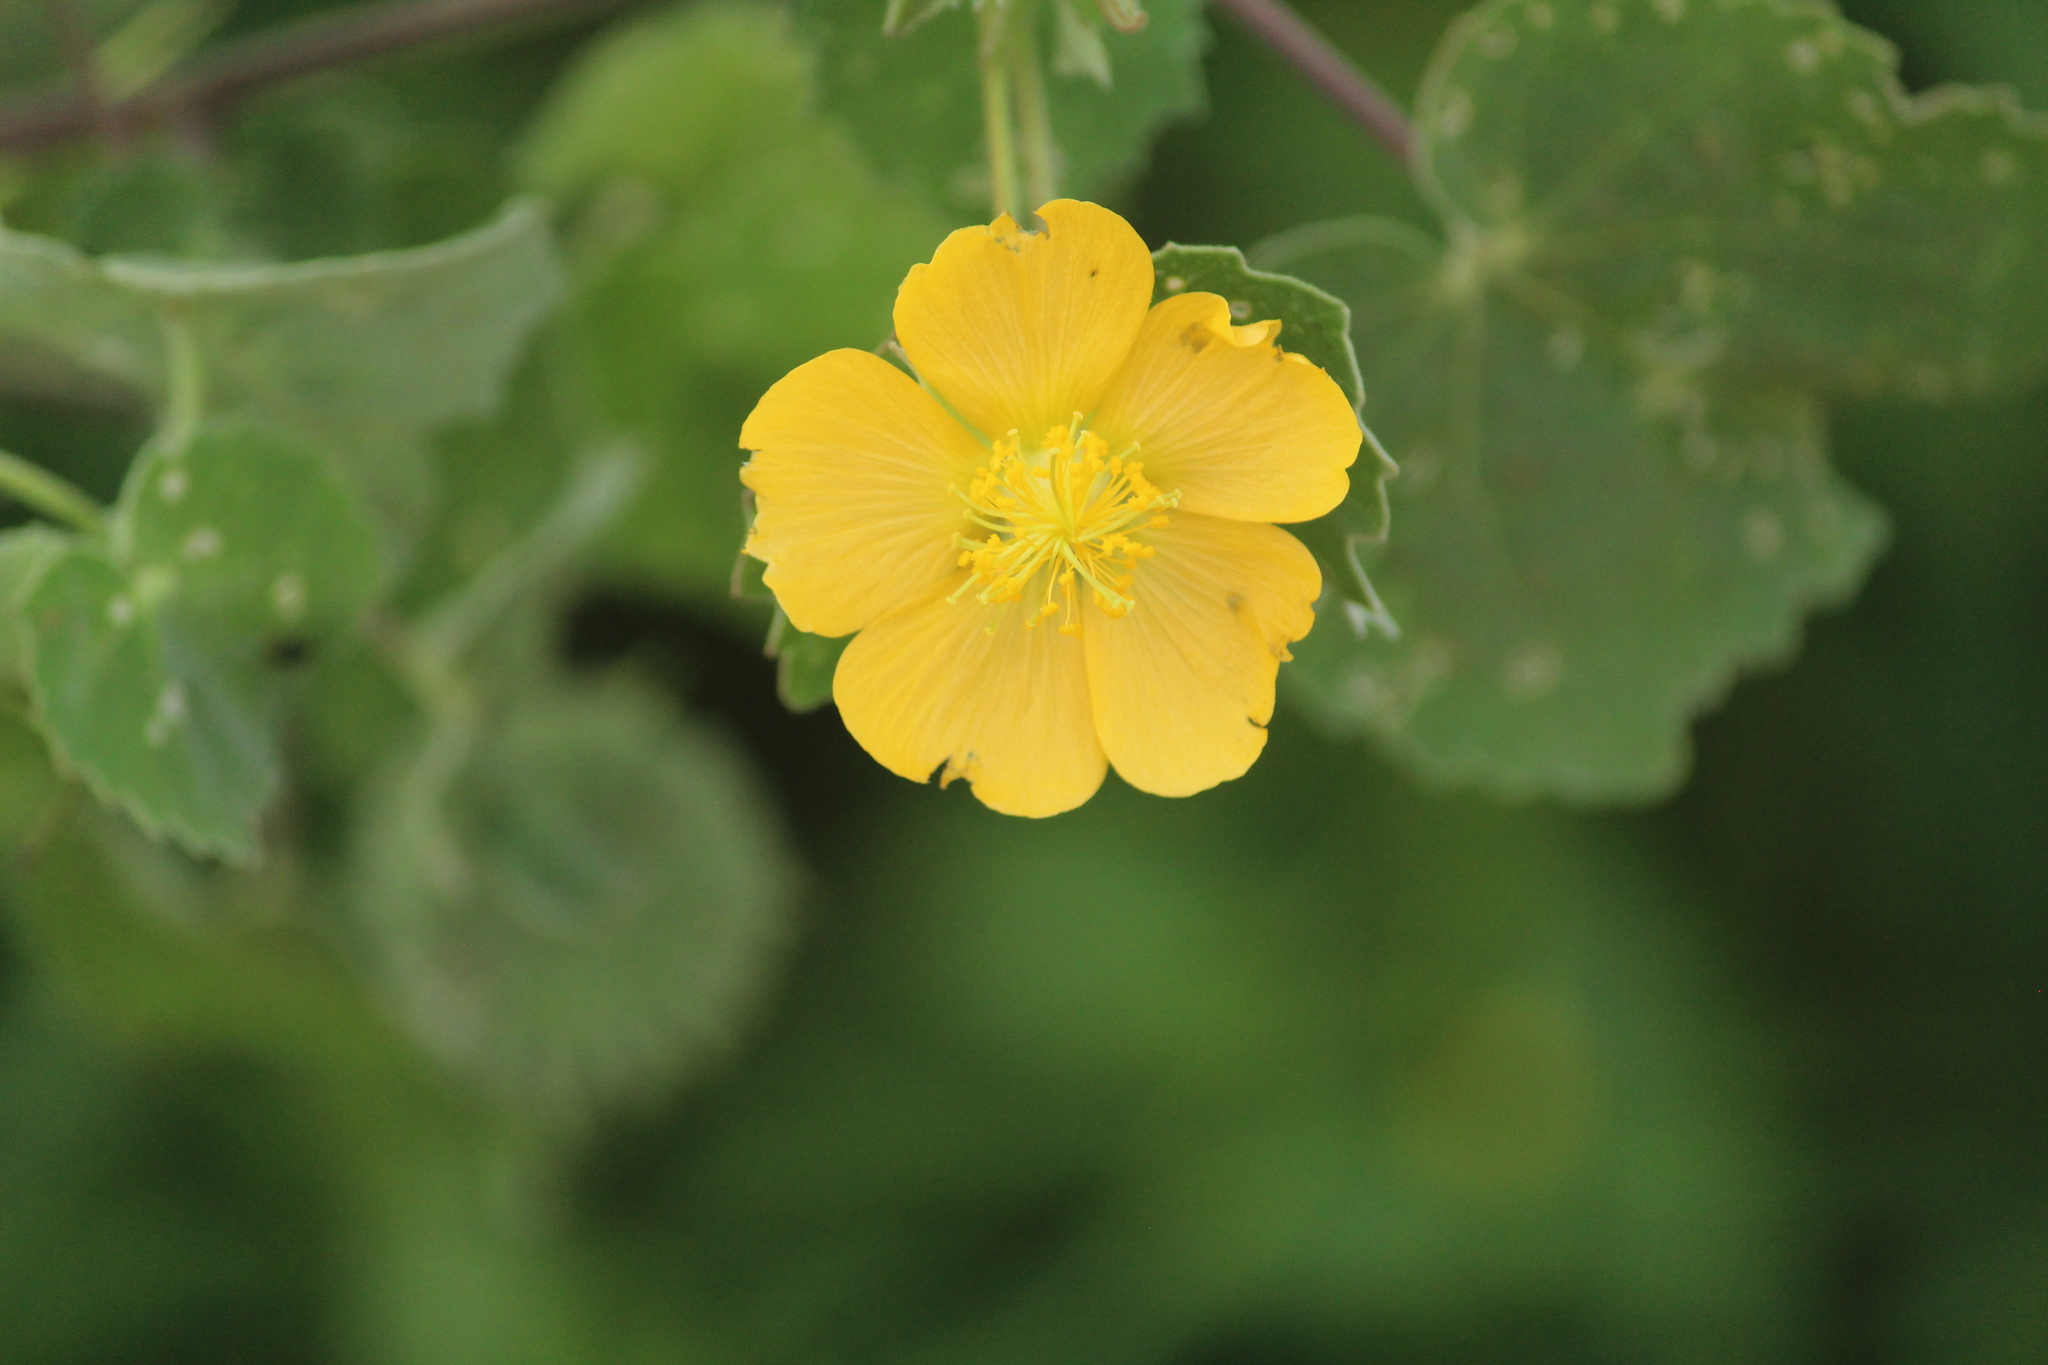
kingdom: Plantae
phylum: Tracheophyta
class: Magnoliopsida
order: Malvales
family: Malvaceae
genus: Abutilon
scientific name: Abutilon indicum
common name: Indian abutilon
